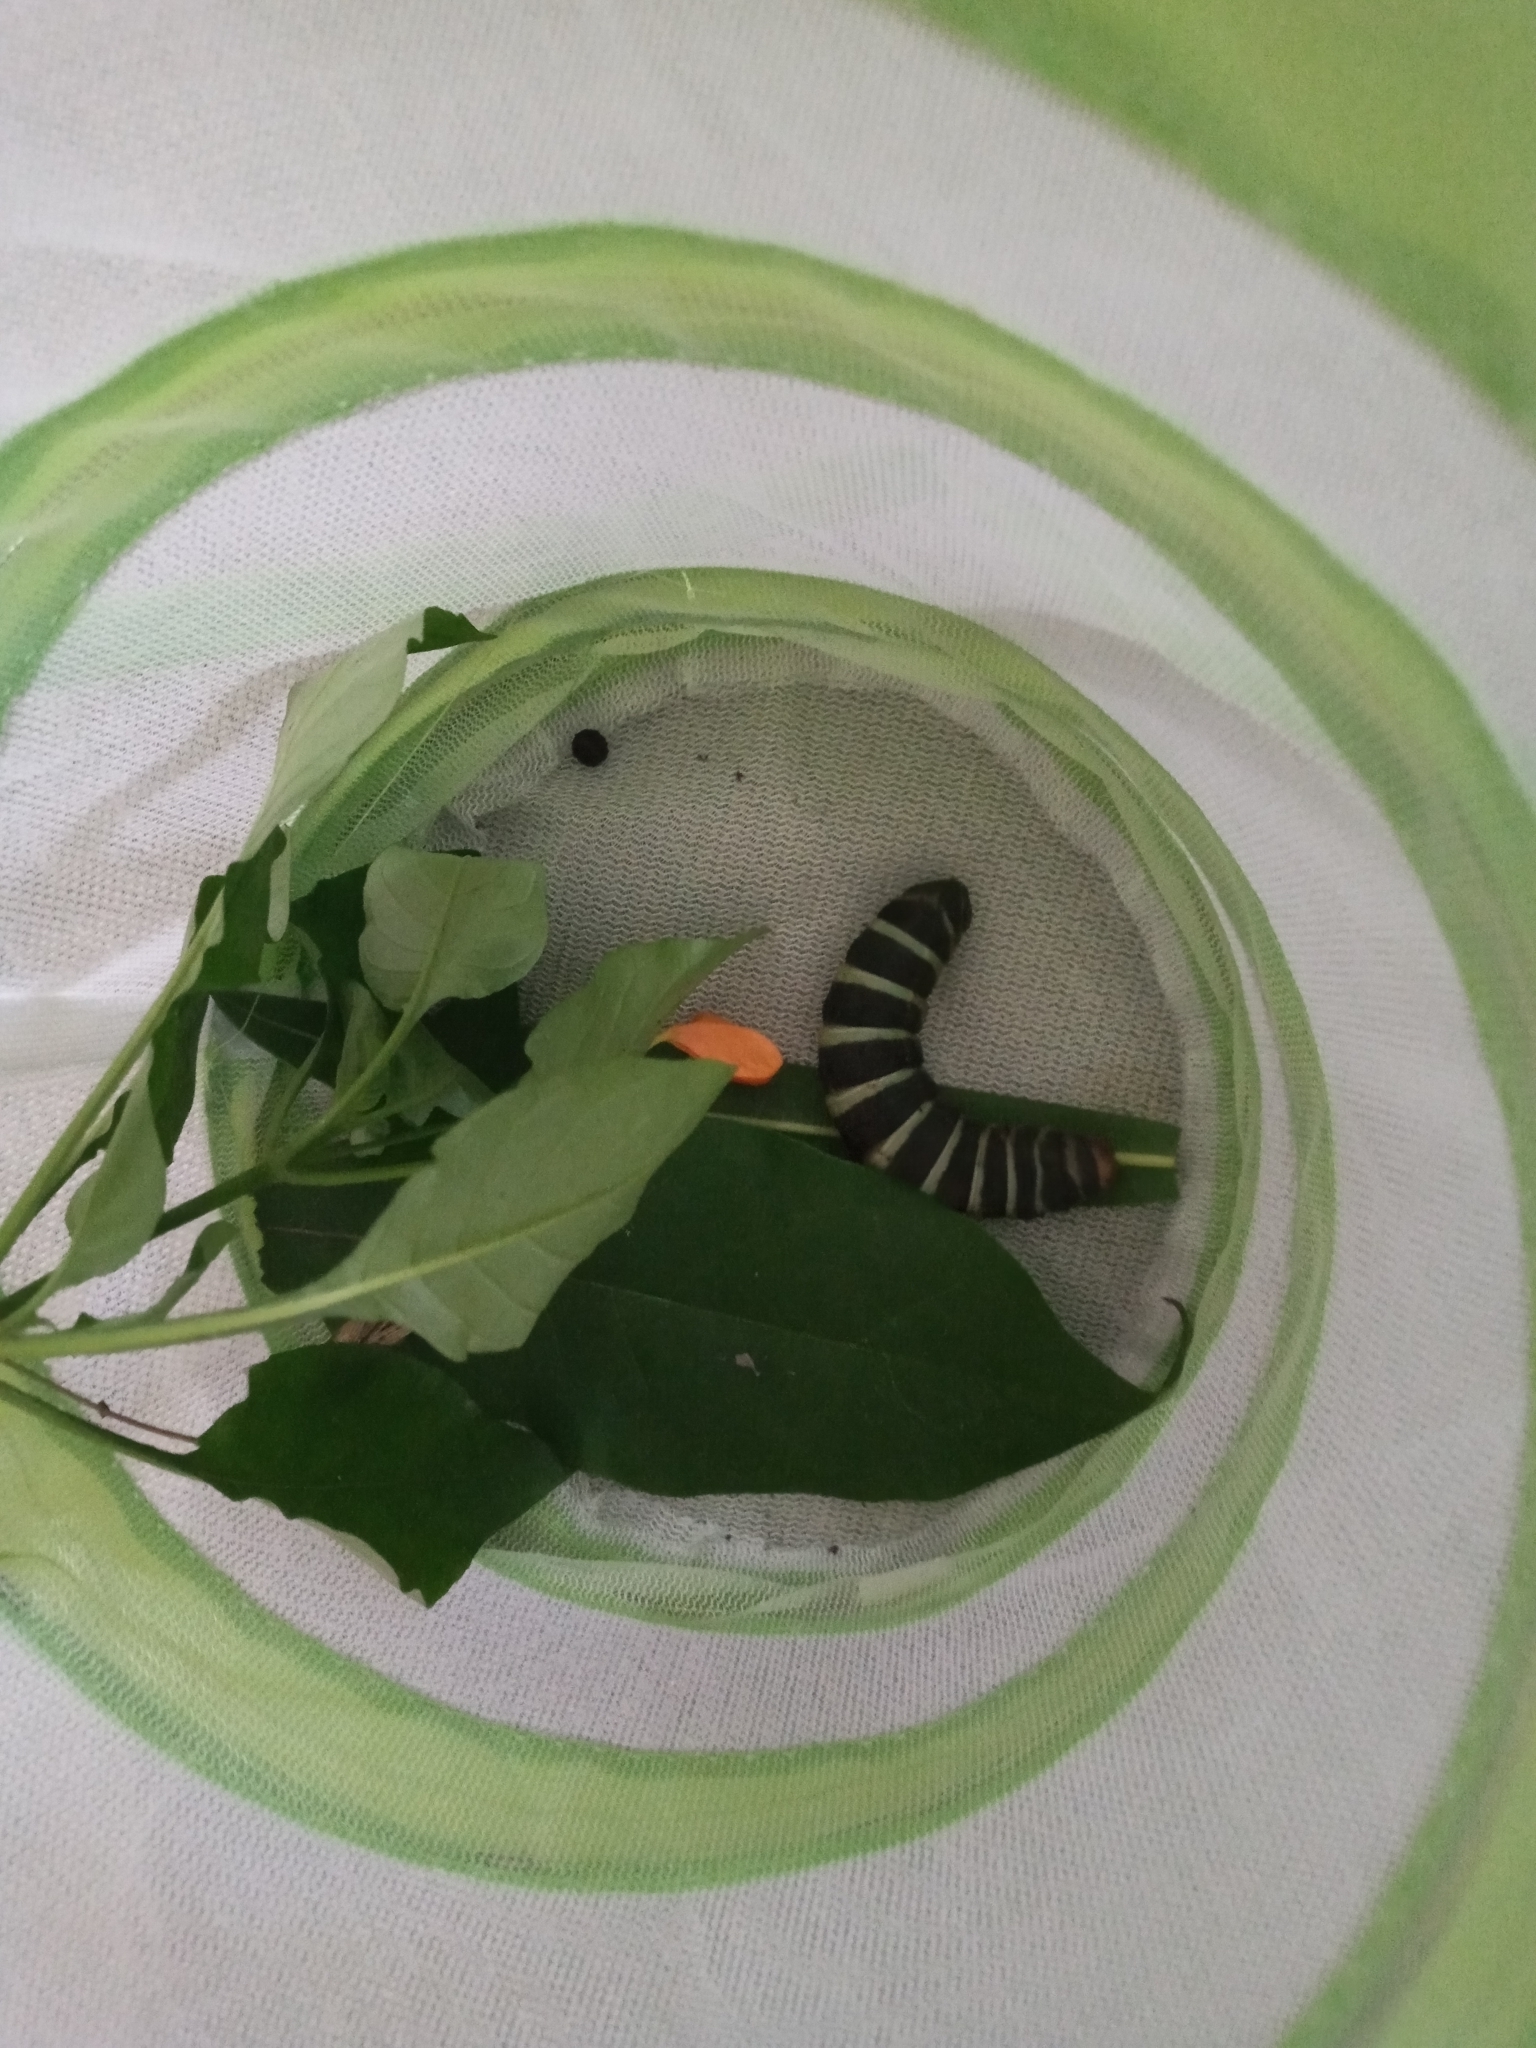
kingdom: Animalia
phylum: Arthropoda
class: Insecta
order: Lepidoptera
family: Sphingidae
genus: Pachylia
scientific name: Pachylia syces
